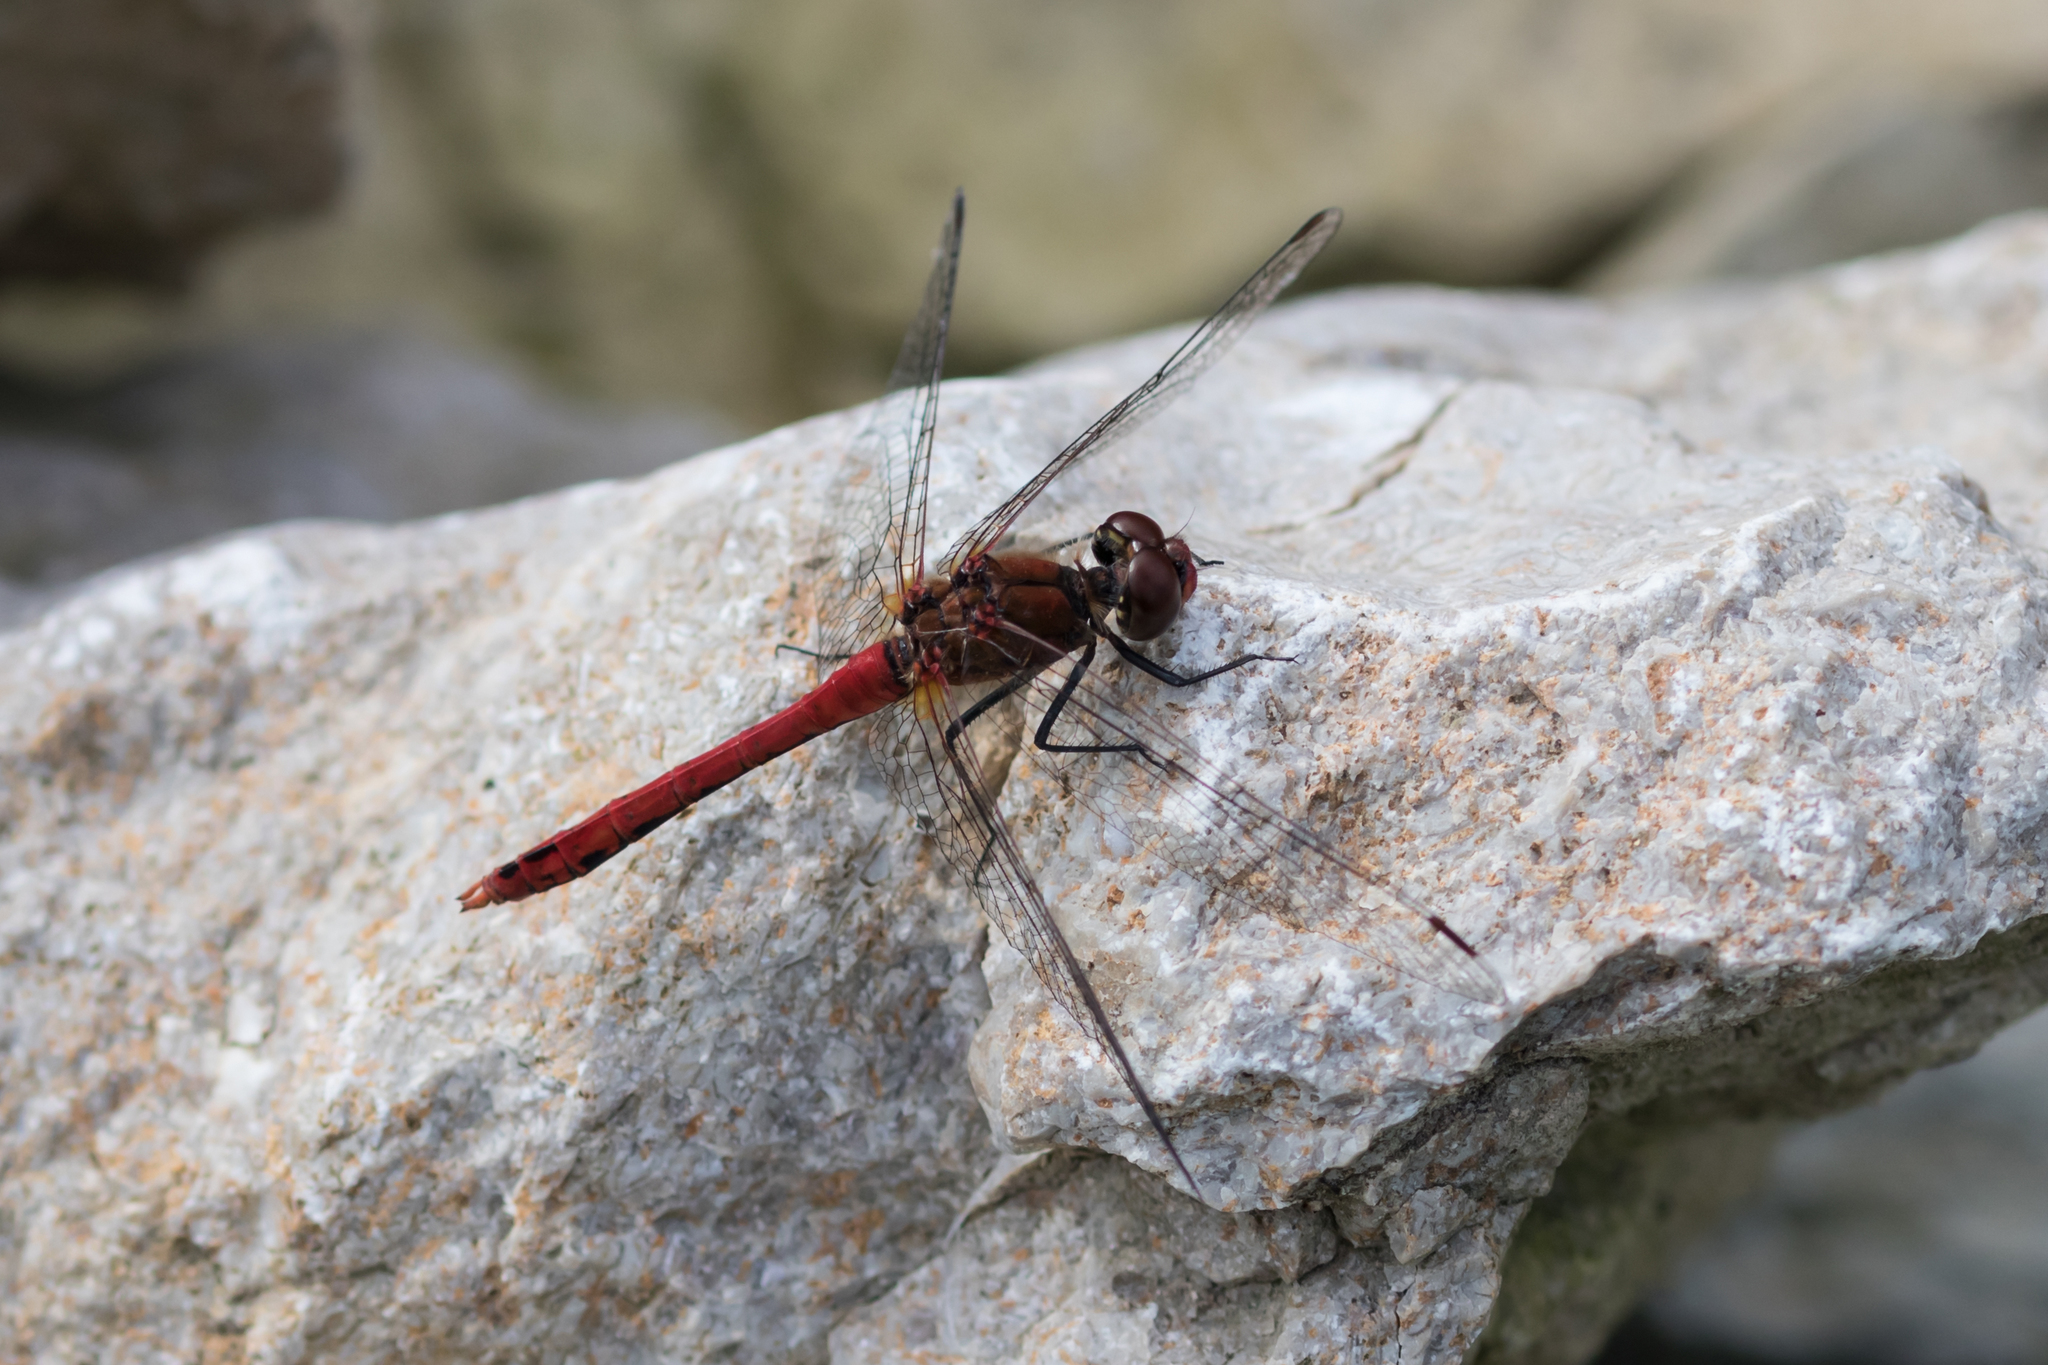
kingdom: Animalia
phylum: Arthropoda
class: Insecta
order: Odonata
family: Libellulidae
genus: Sympetrum
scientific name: Sympetrum sanguineum
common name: Ruddy darter
